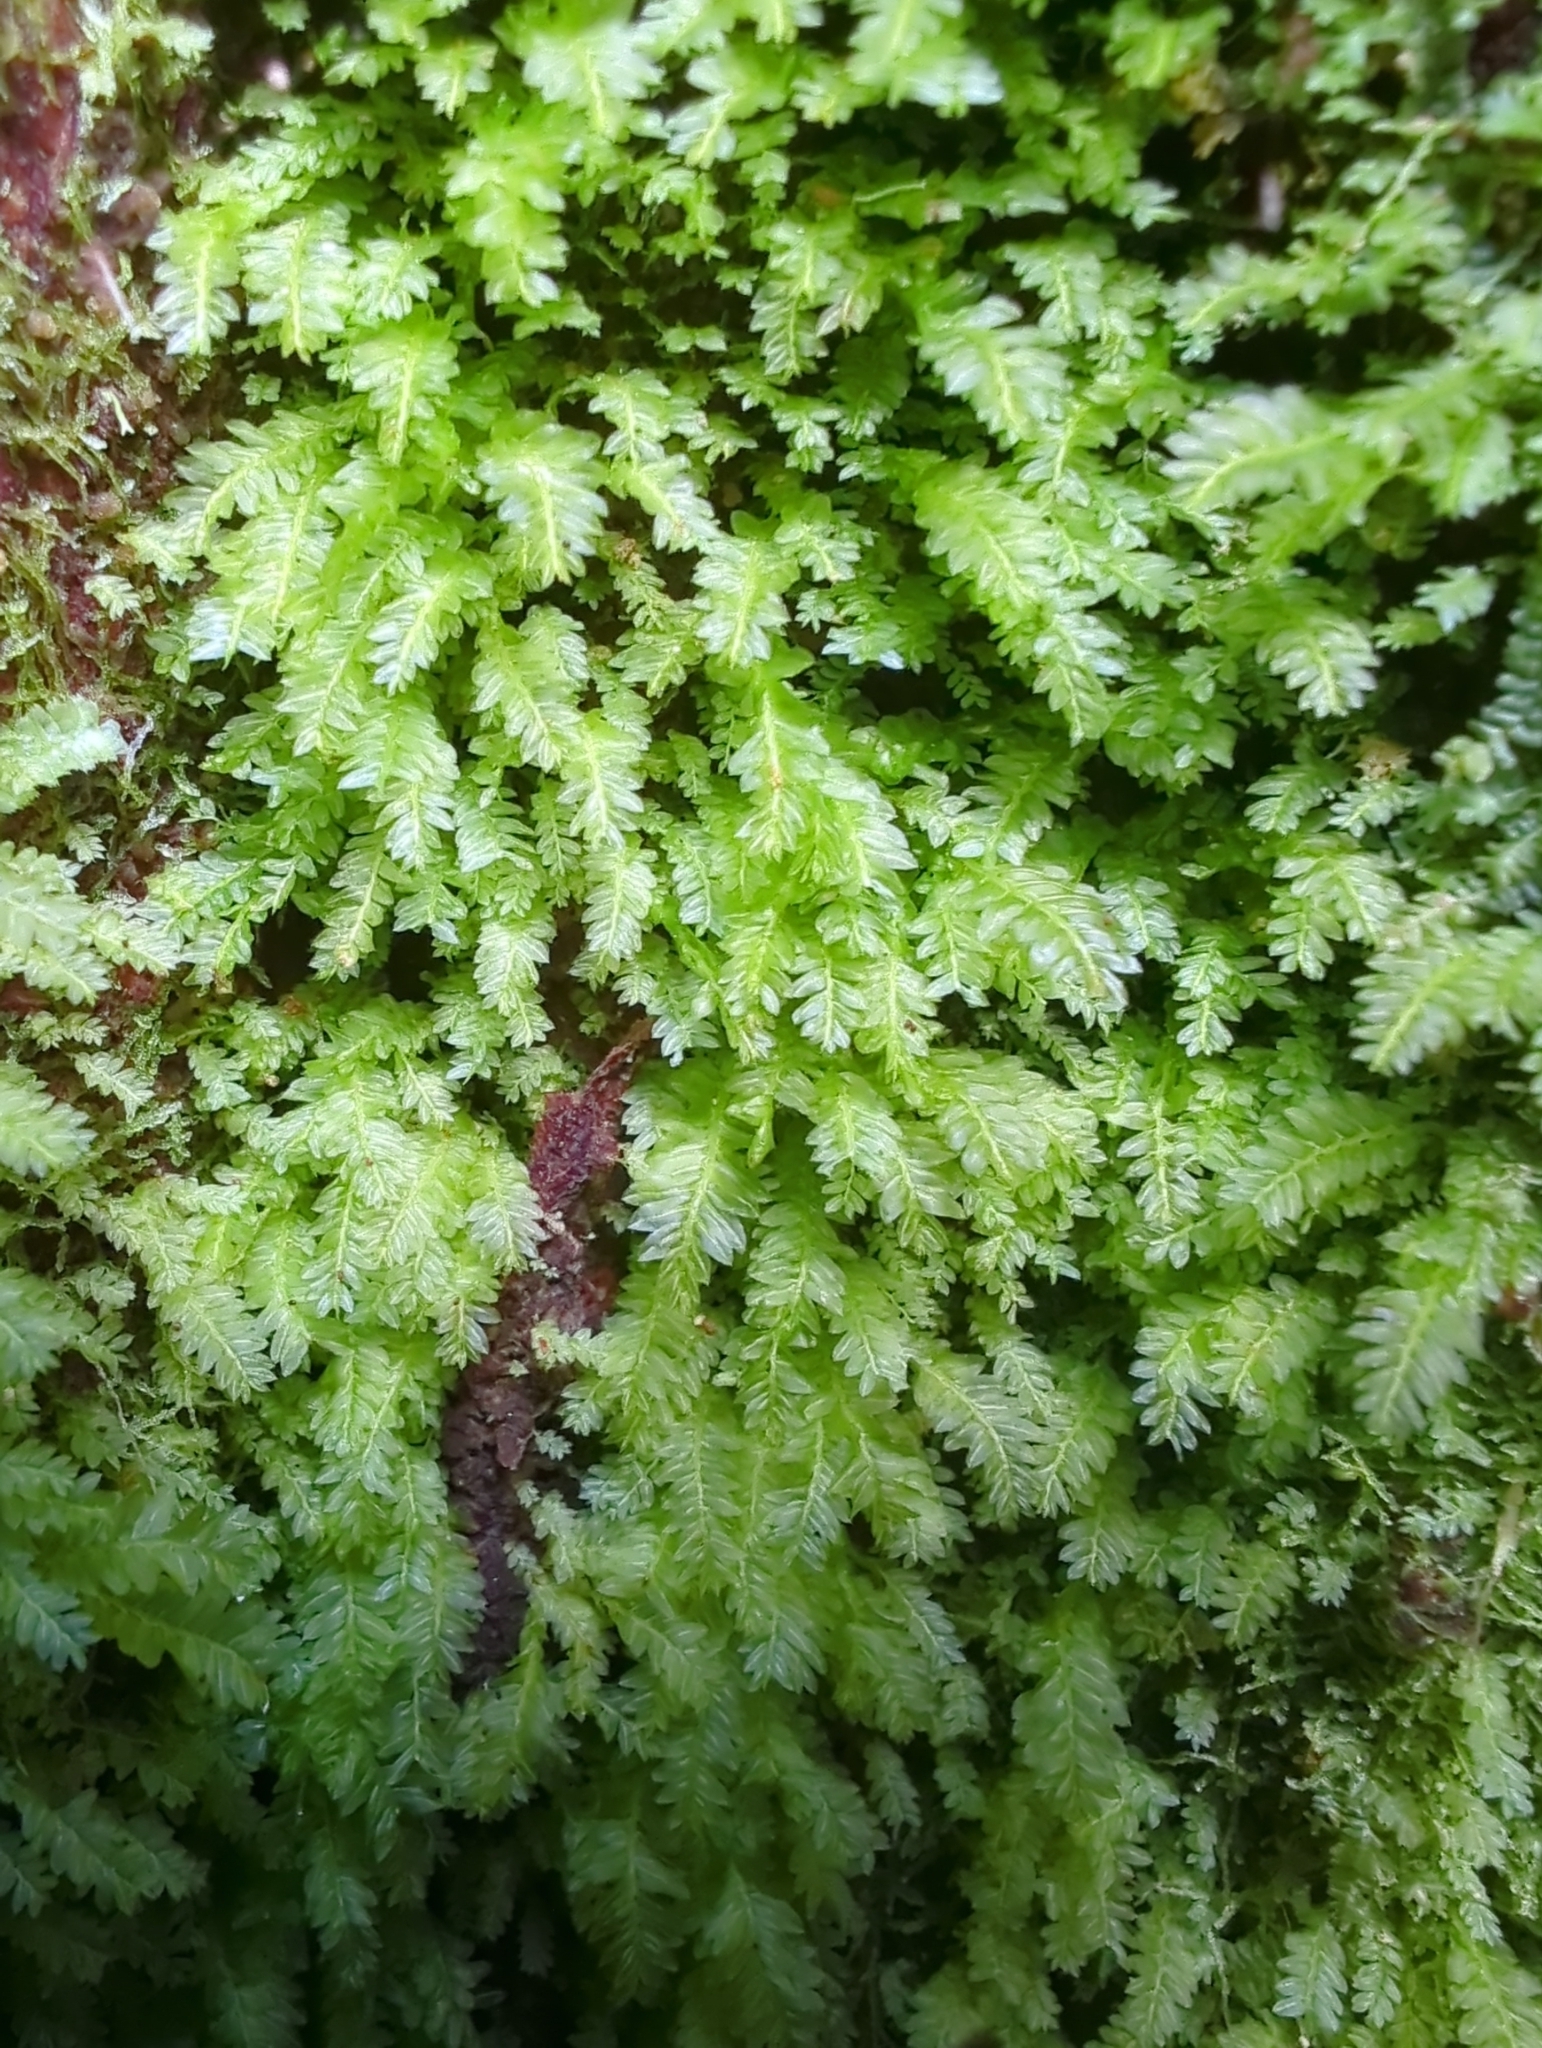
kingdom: Plantae
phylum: Bryophyta
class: Bryopsida
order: Rhizogoniales
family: Rhizogoniaceae
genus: Rhizogonium
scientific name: Rhizogonium distichum
